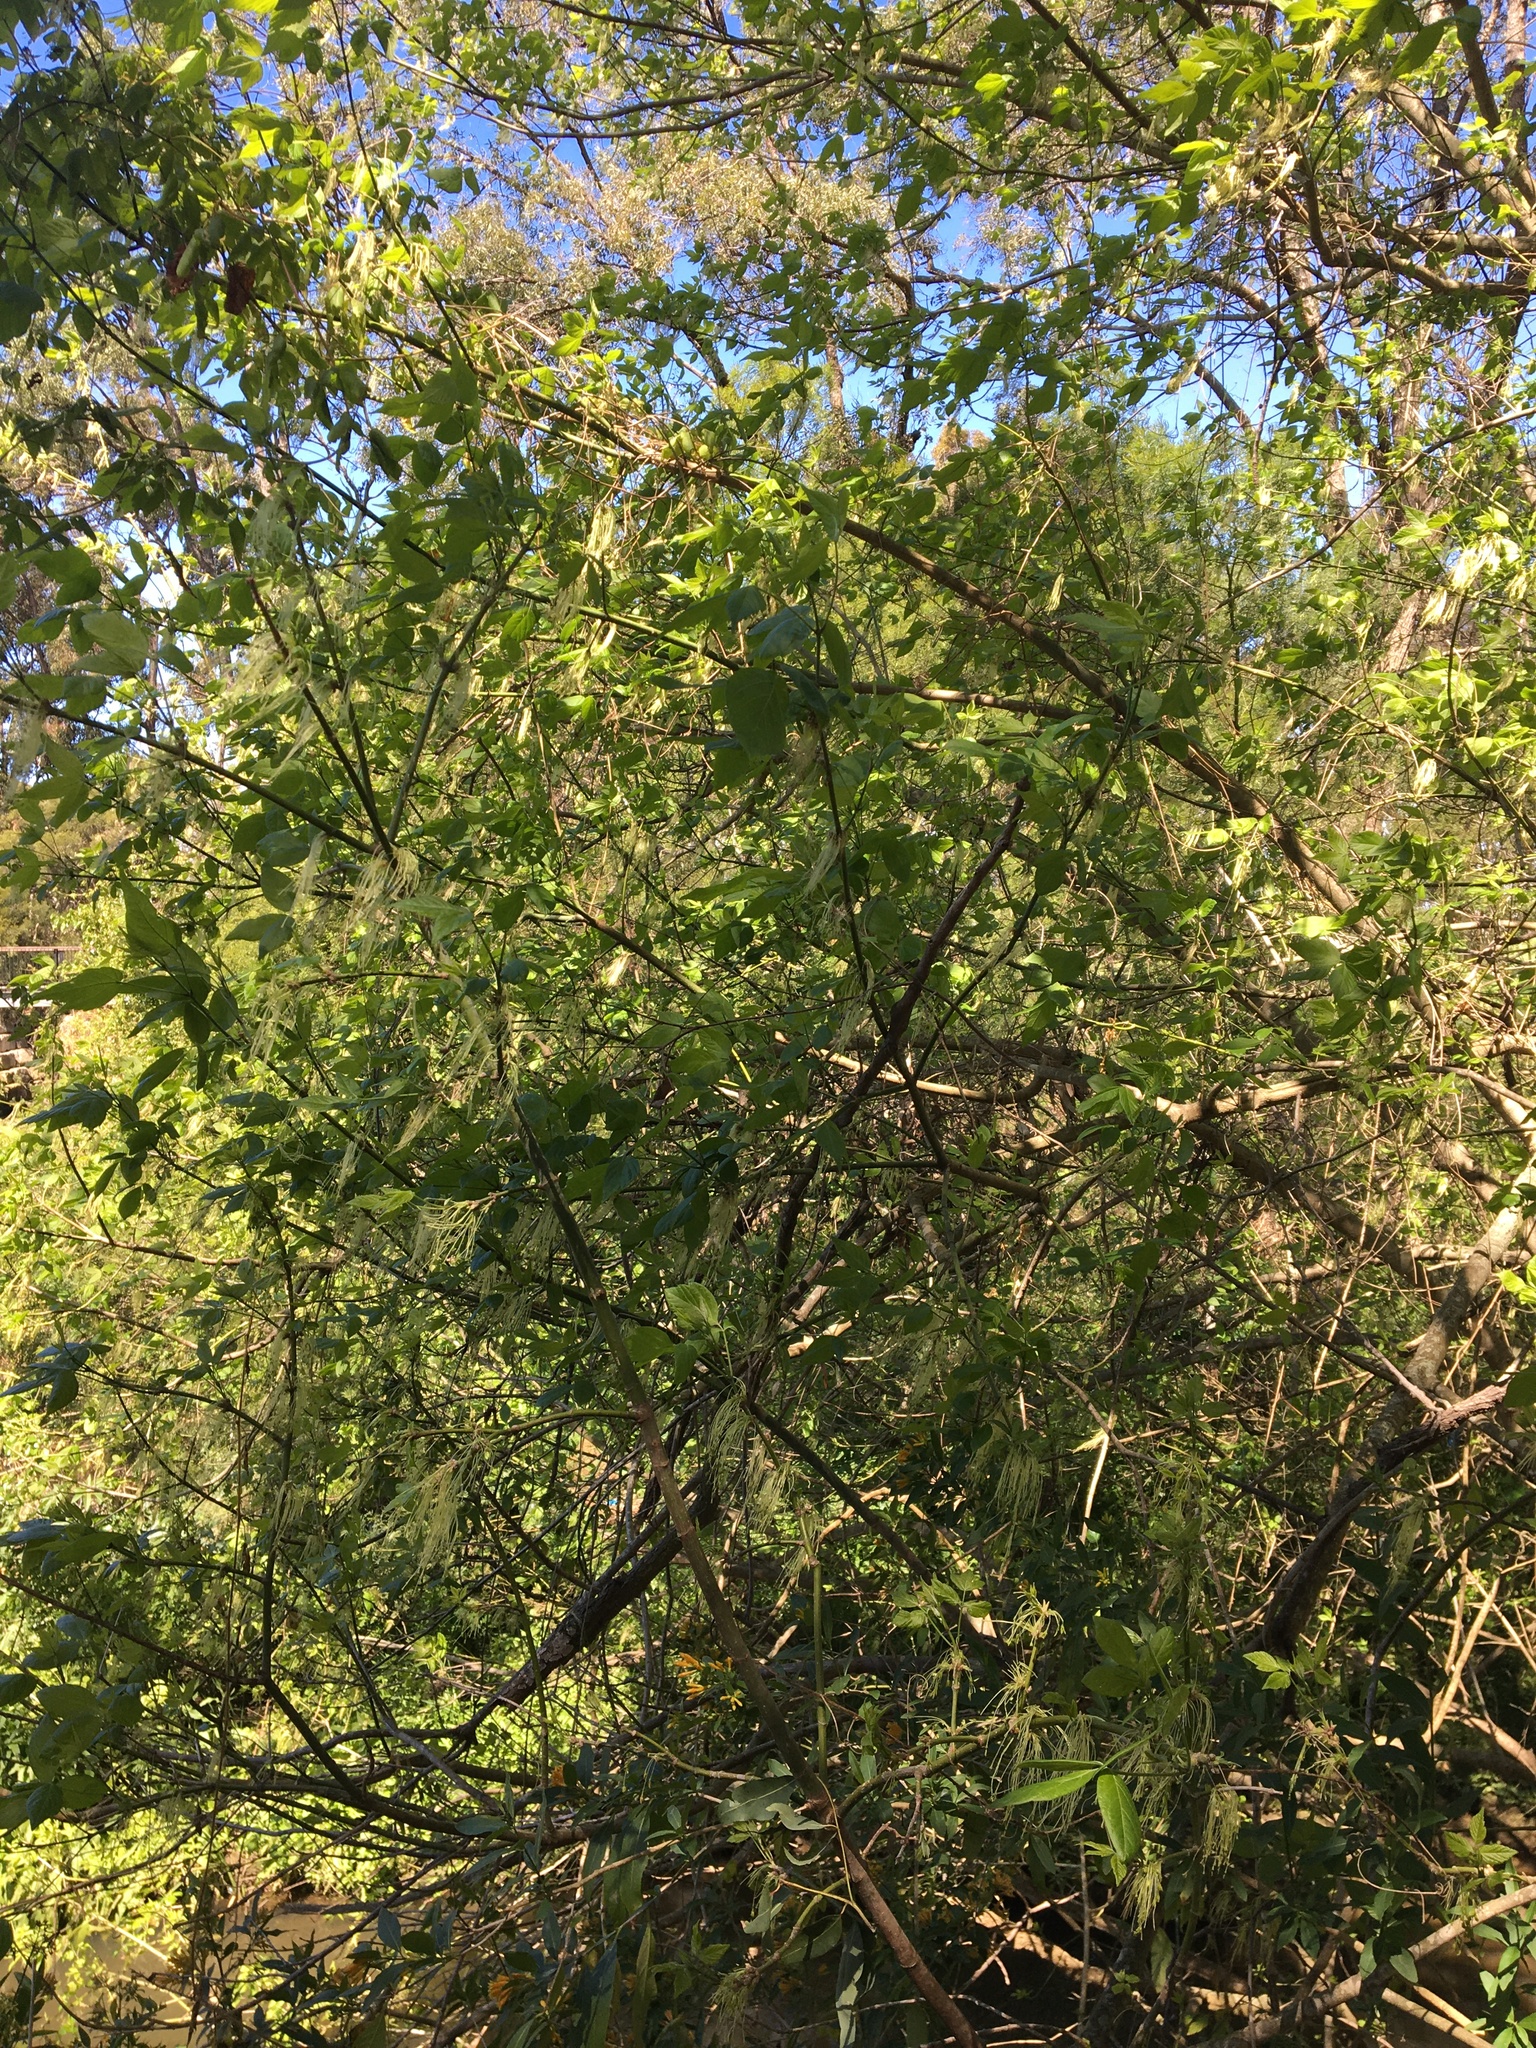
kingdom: Plantae
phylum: Tracheophyta
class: Magnoliopsida
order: Sapindales
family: Sapindaceae
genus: Acer
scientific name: Acer negundo
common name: Ashleaf maple
